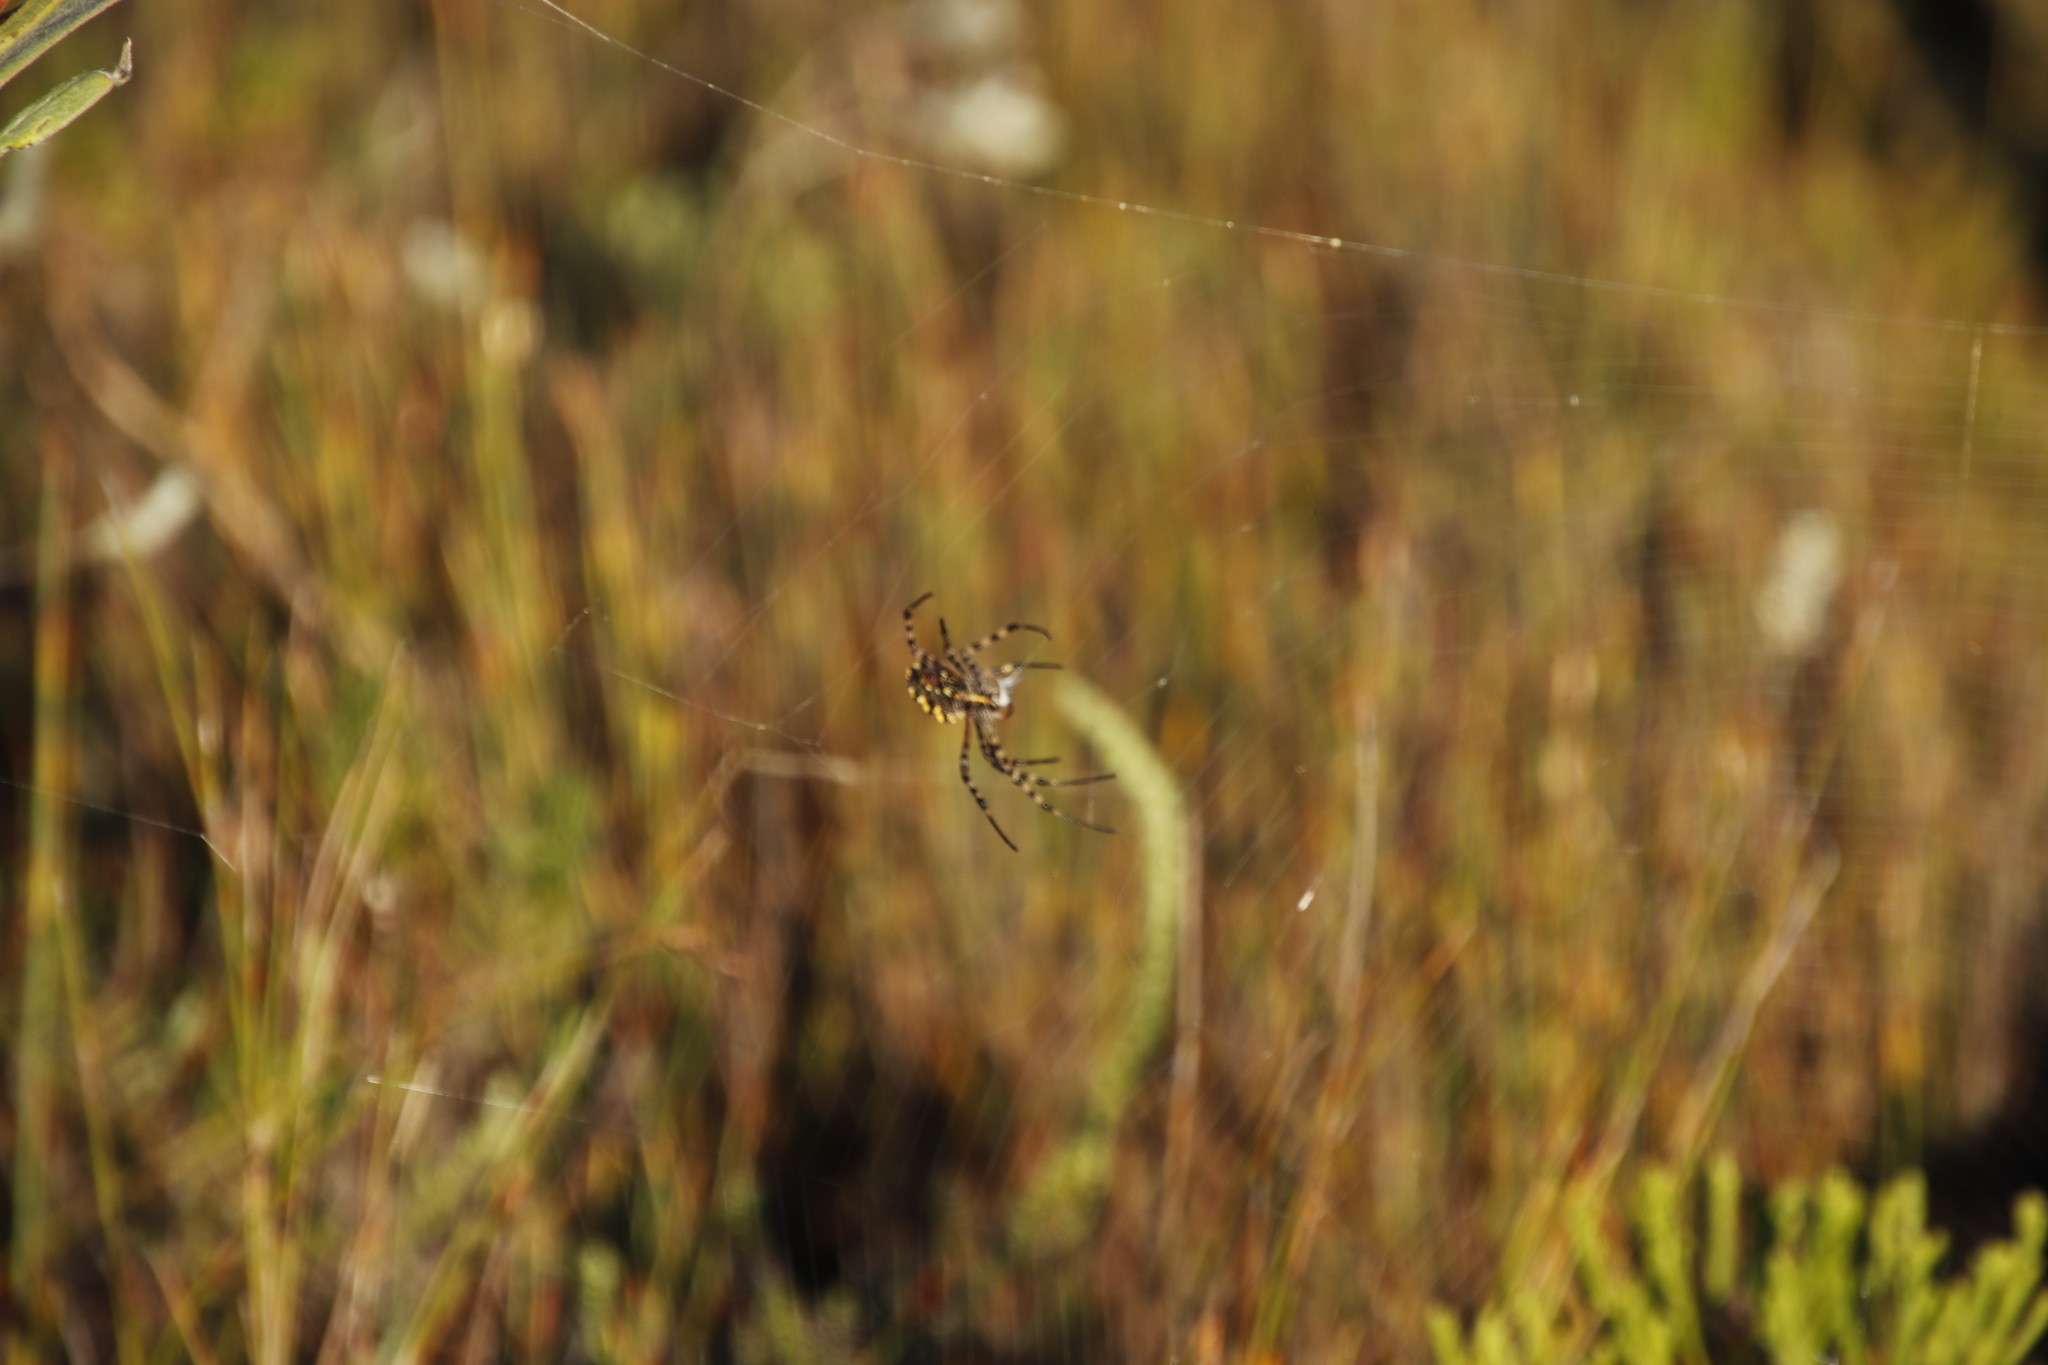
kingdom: Animalia
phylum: Arthropoda
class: Arachnida
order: Araneae
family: Araneidae
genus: Argiope
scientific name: Argiope australis
